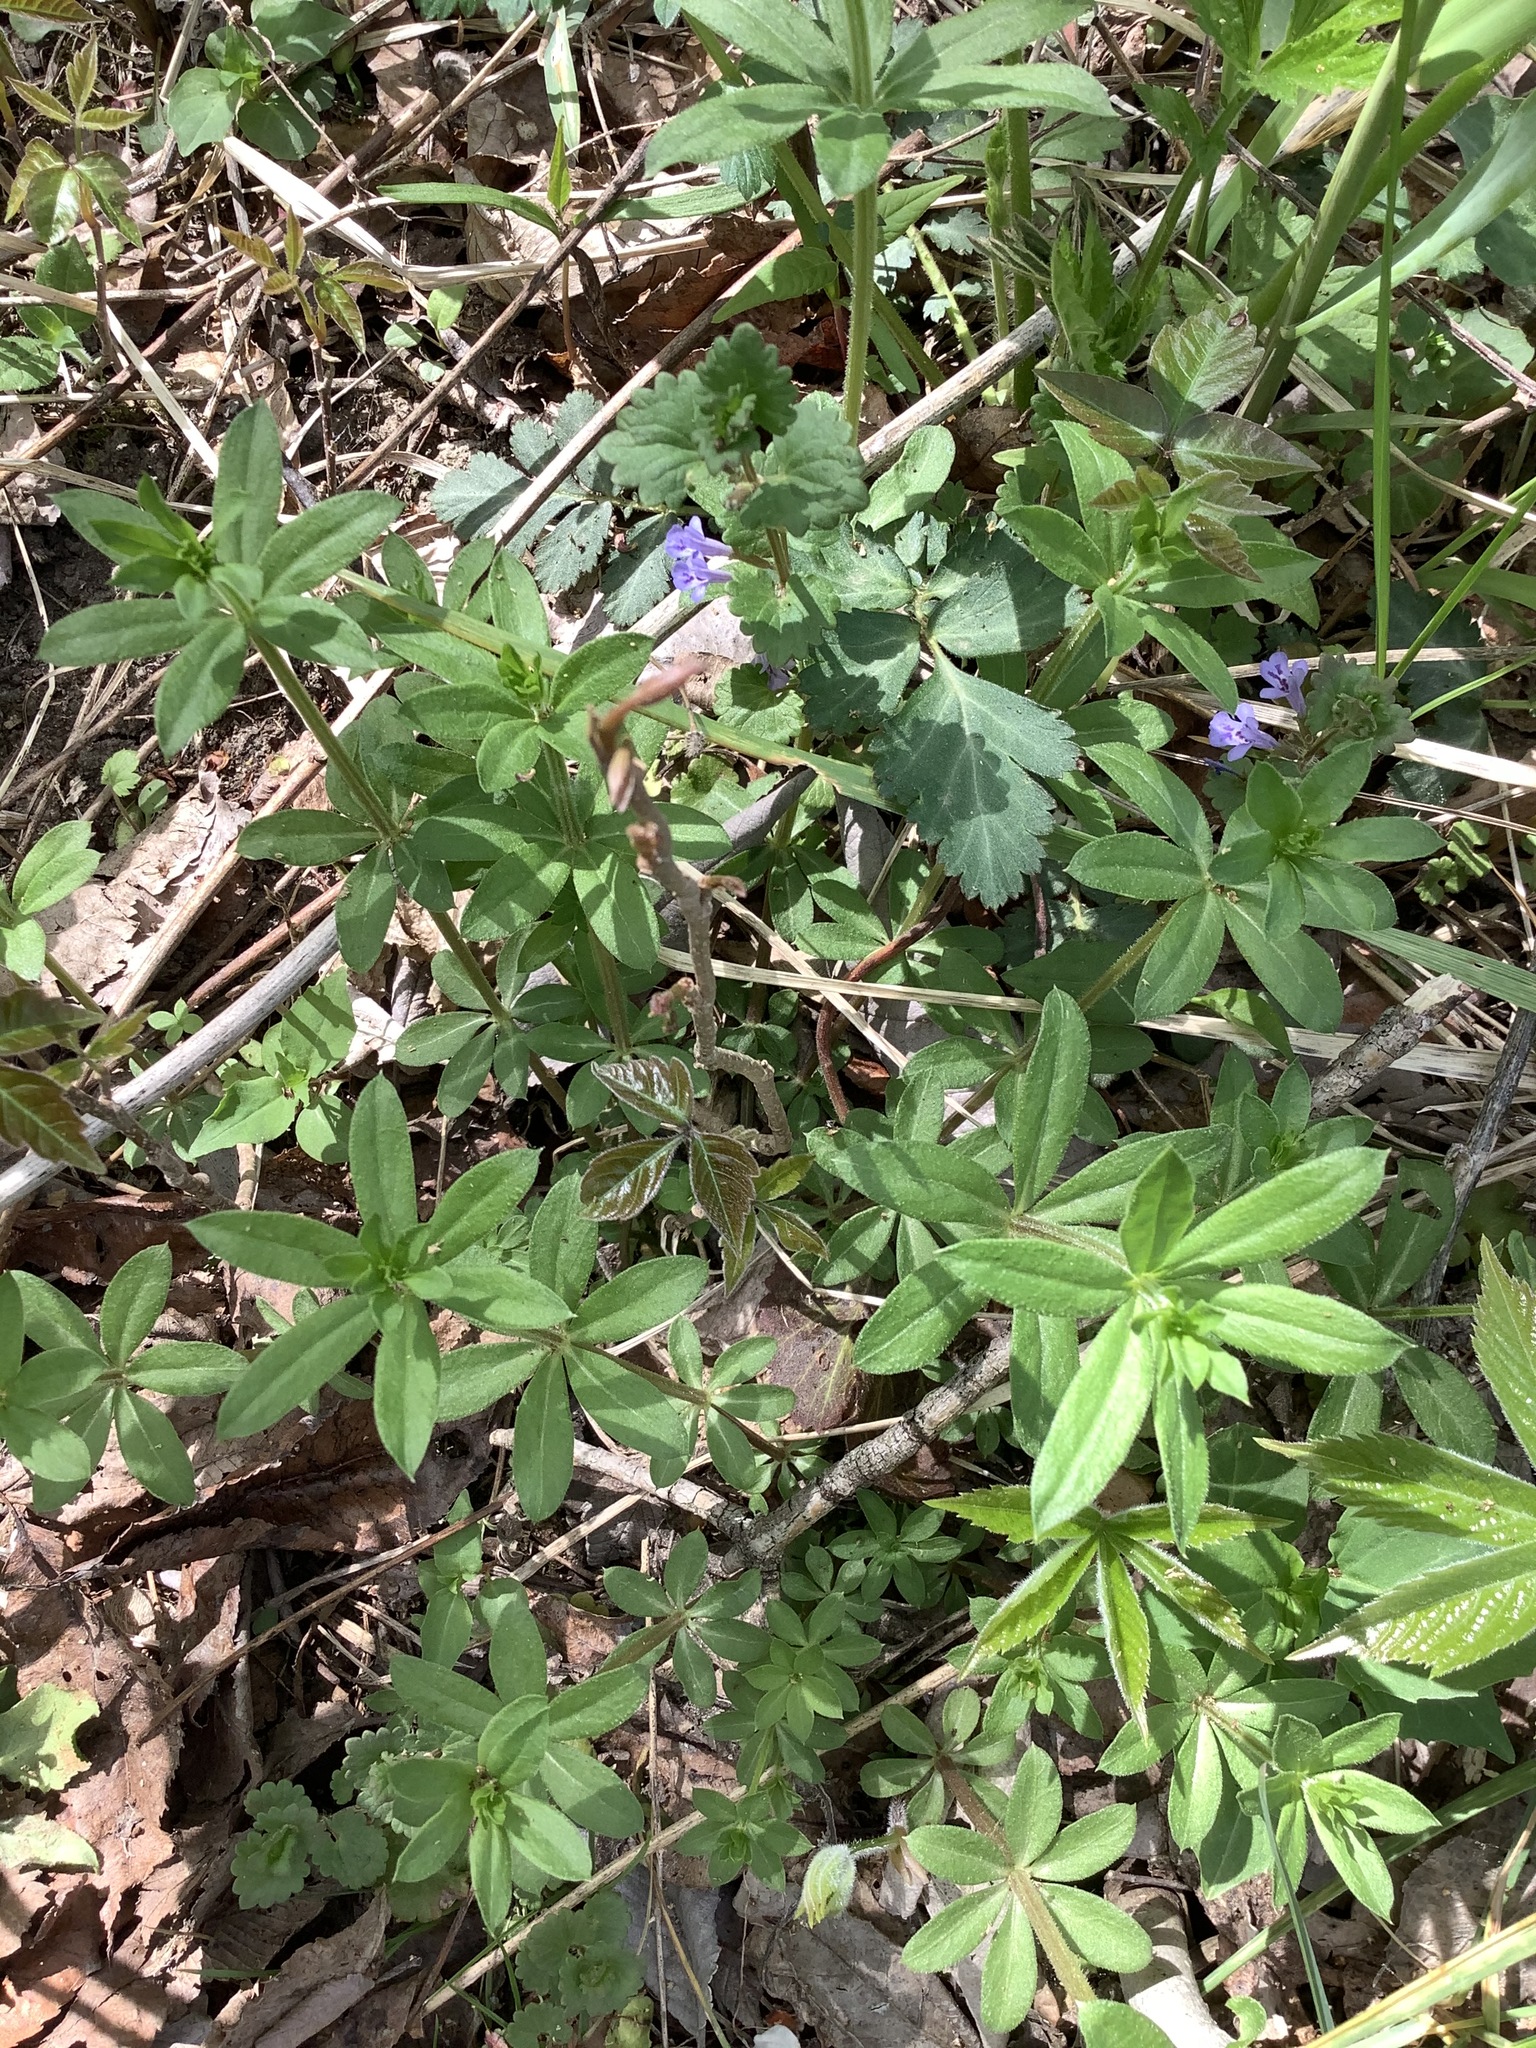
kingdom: Plantae
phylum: Tracheophyta
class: Magnoliopsida
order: Gentianales
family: Rubiaceae
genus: Galium
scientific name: Galium triflorum
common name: Fragrant bedstraw
